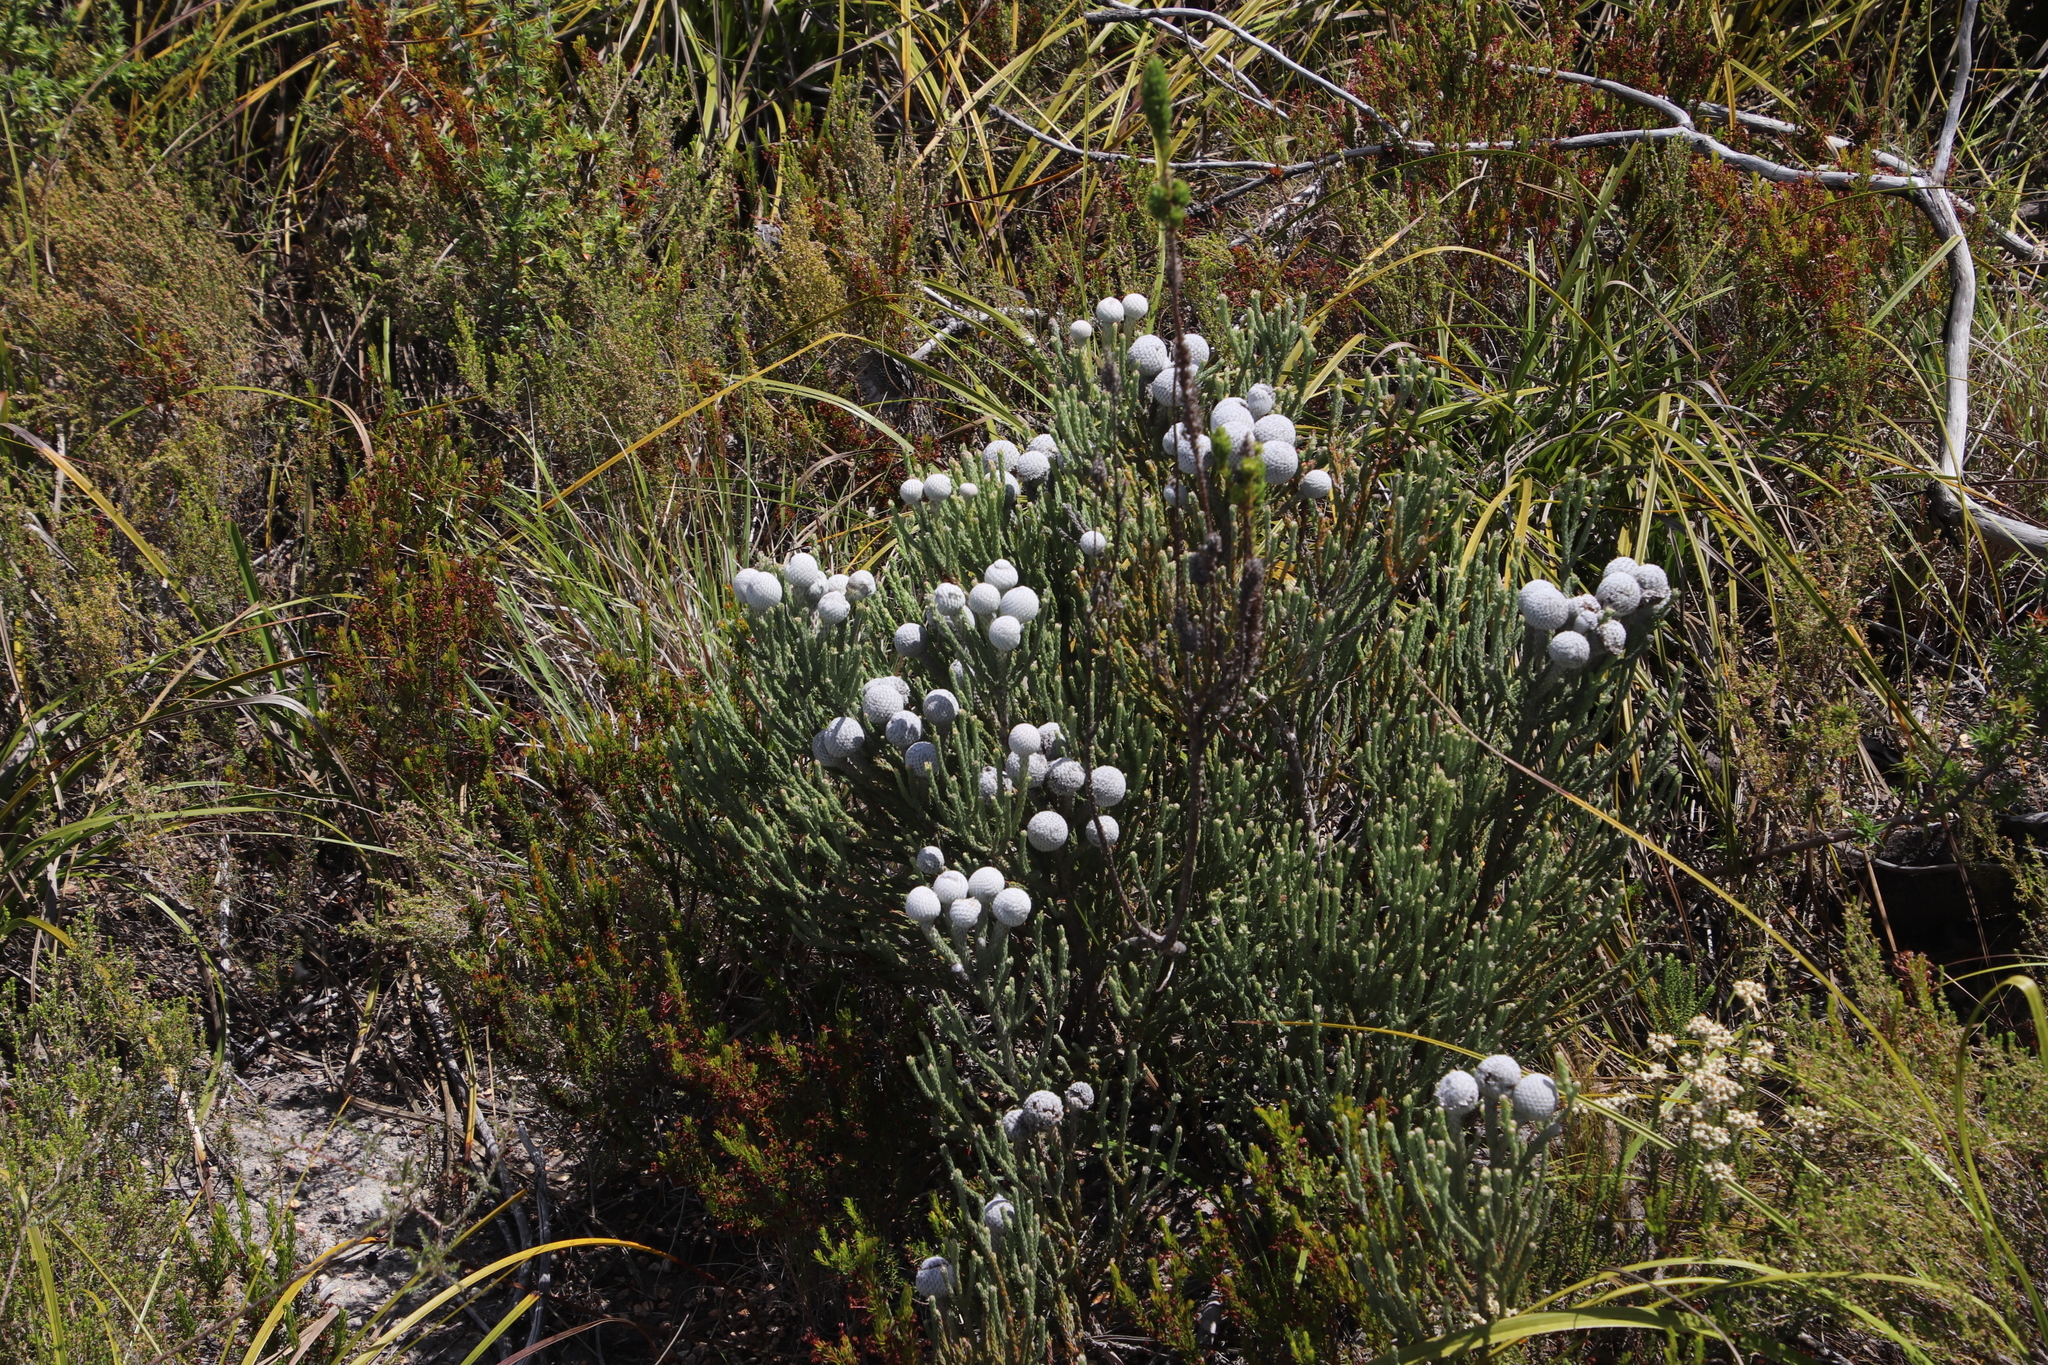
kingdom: Plantae
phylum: Tracheophyta
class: Magnoliopsida
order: Bruniales
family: Bruniaceae
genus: Brunia
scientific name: Brunia laevis
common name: Silver brunia
